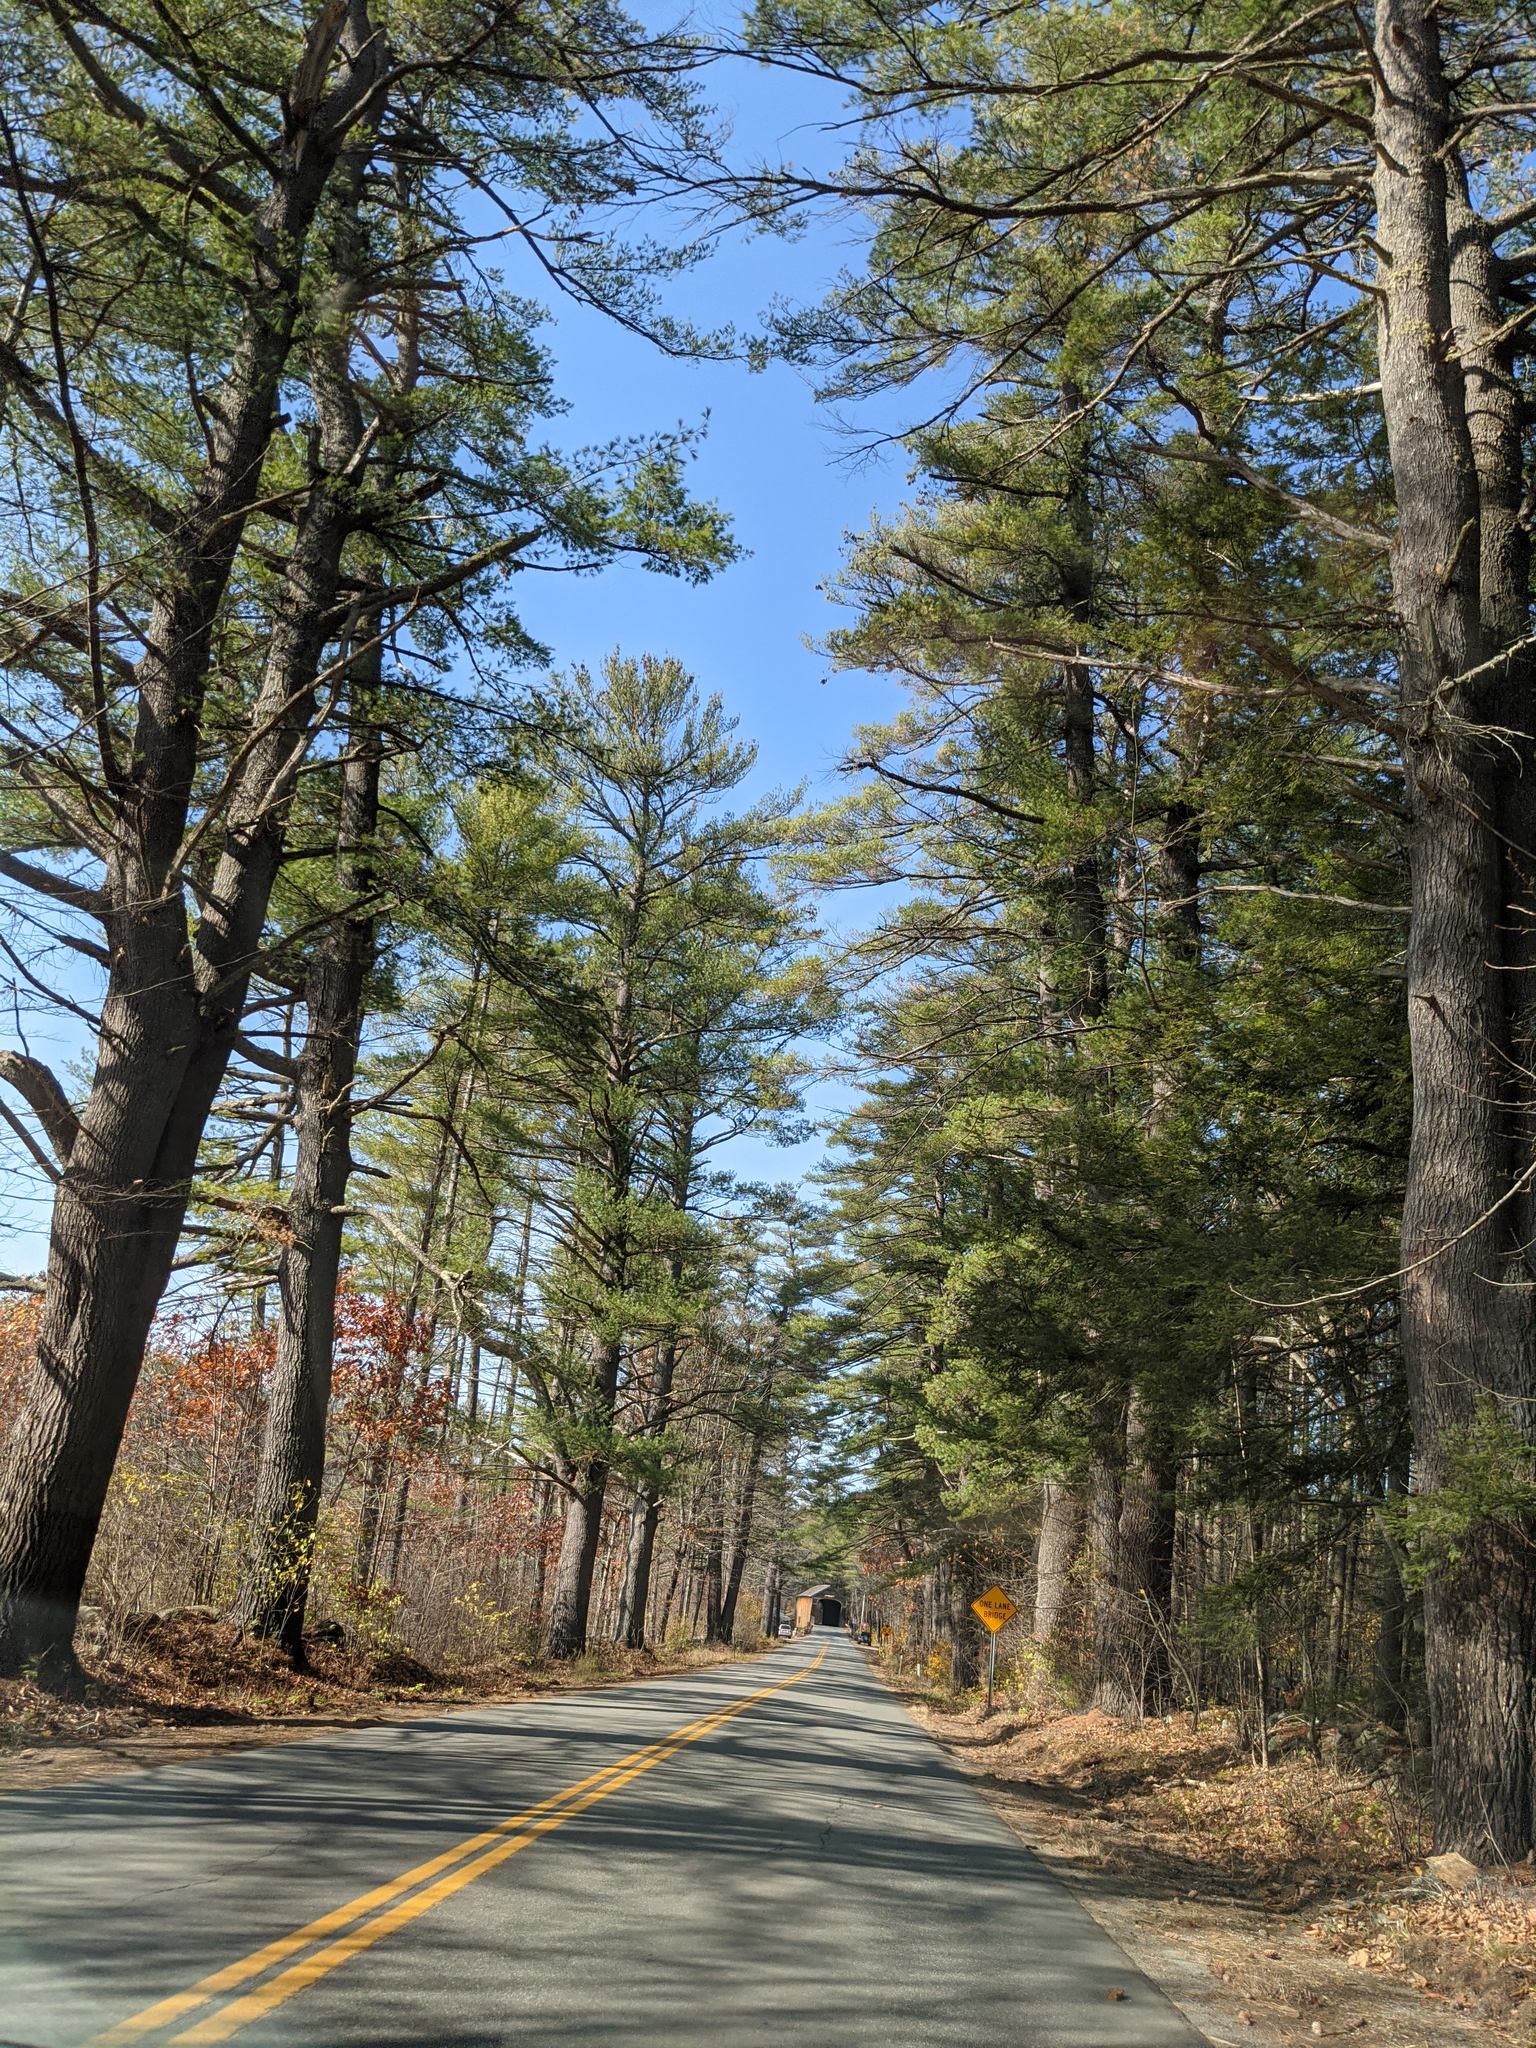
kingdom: Plantae
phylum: Tracheophyta
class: Pinopsida
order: Pinales
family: Pinaceae
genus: Pinus
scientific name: Pinus strobus
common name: Weymouth pine
